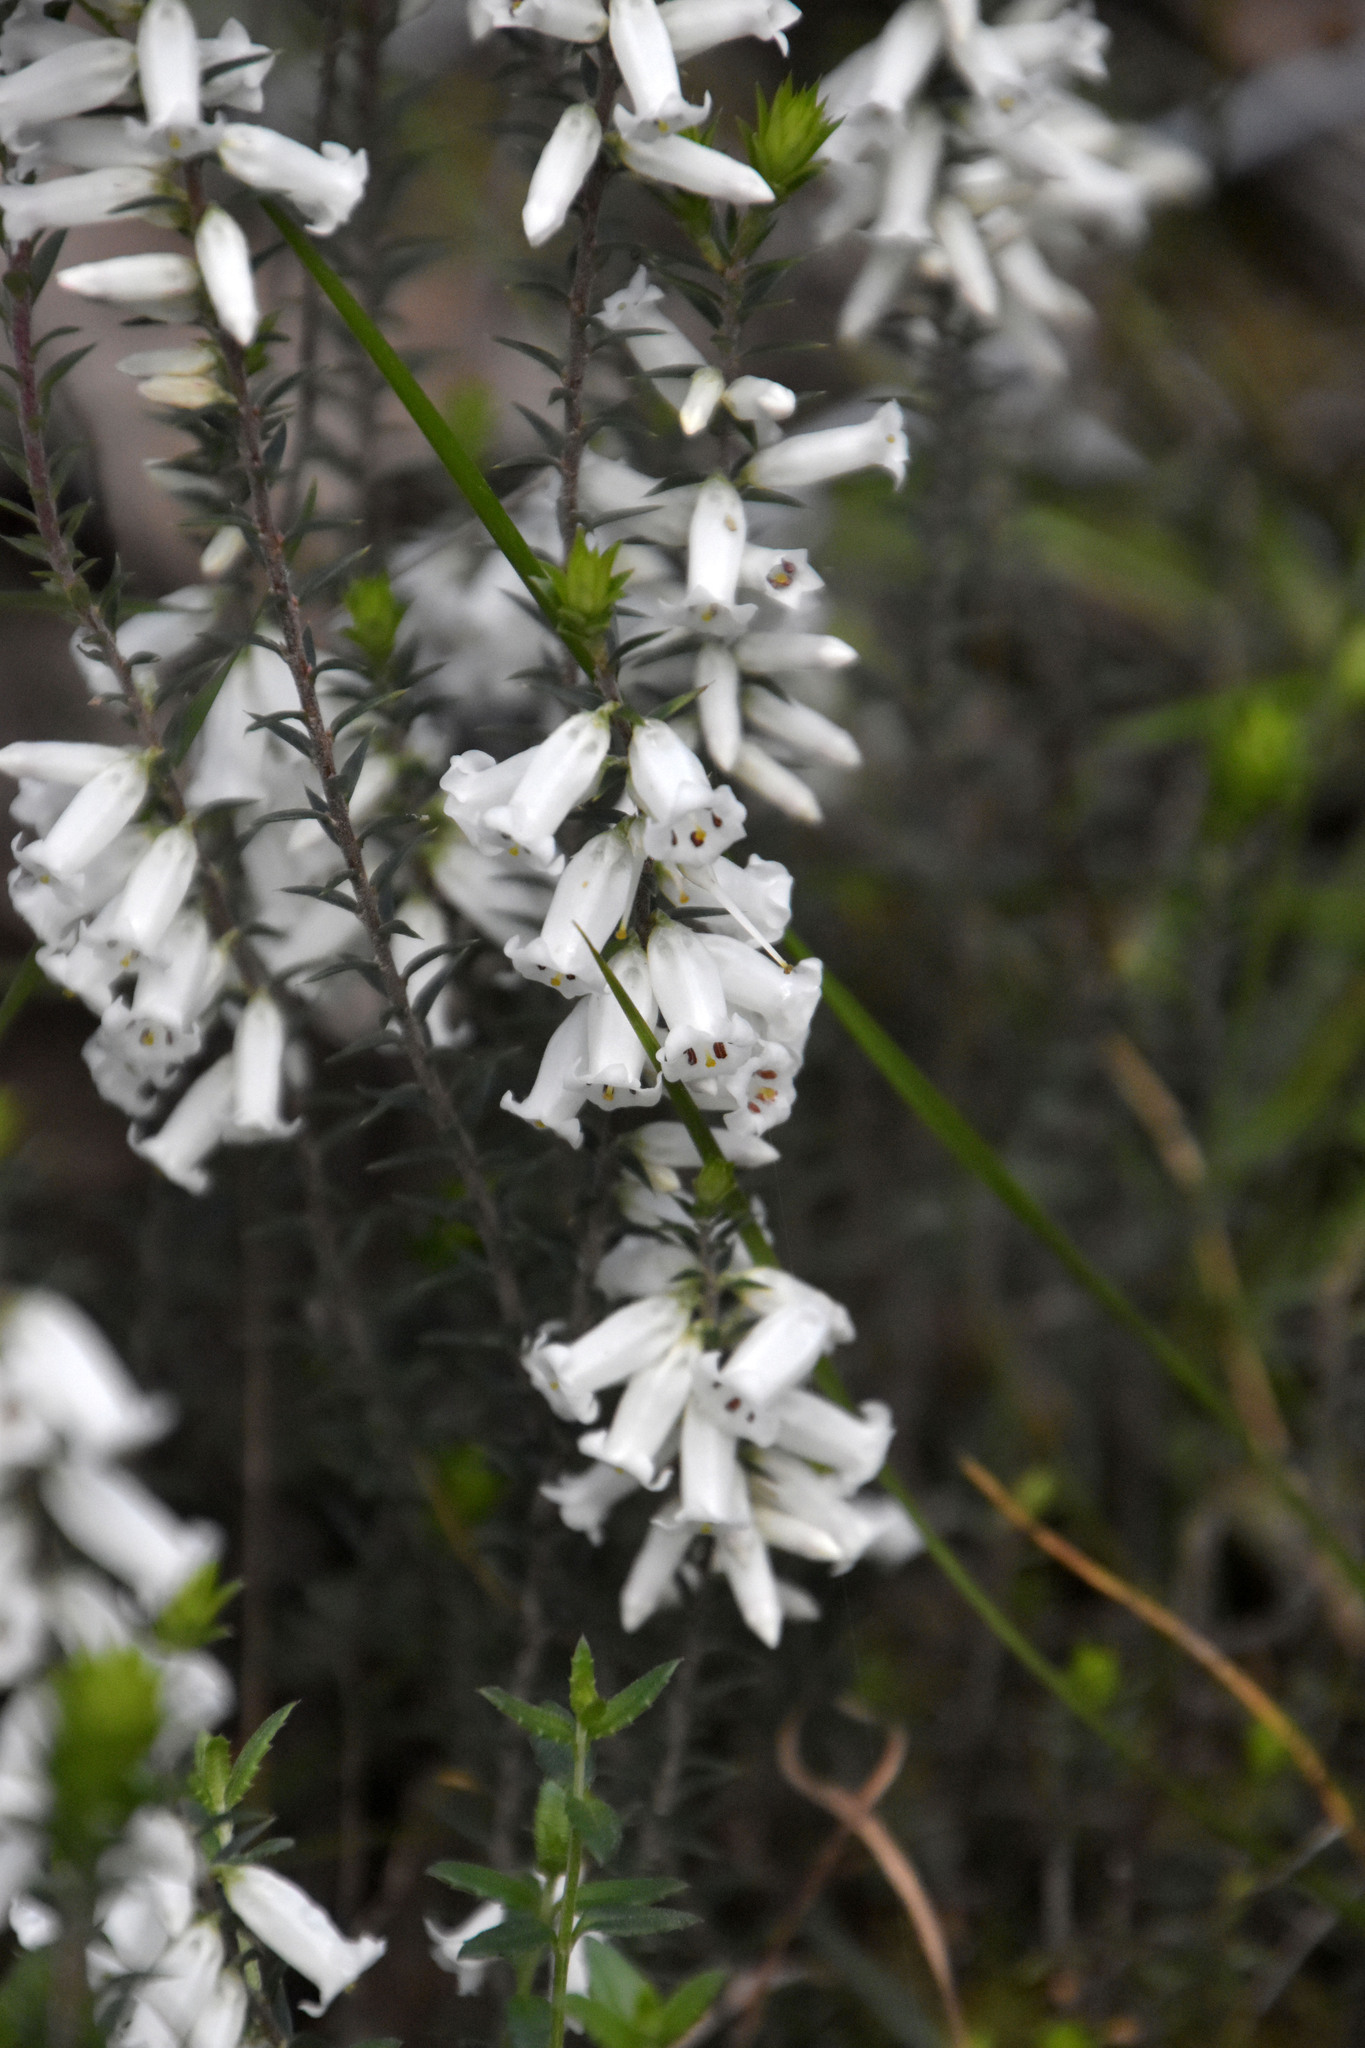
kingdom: Plantae
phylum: Tracheophyta
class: Magnoliopsida
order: Ericales
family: Ericaceae
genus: Epacris
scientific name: Epacris impressa
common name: Common-heath
